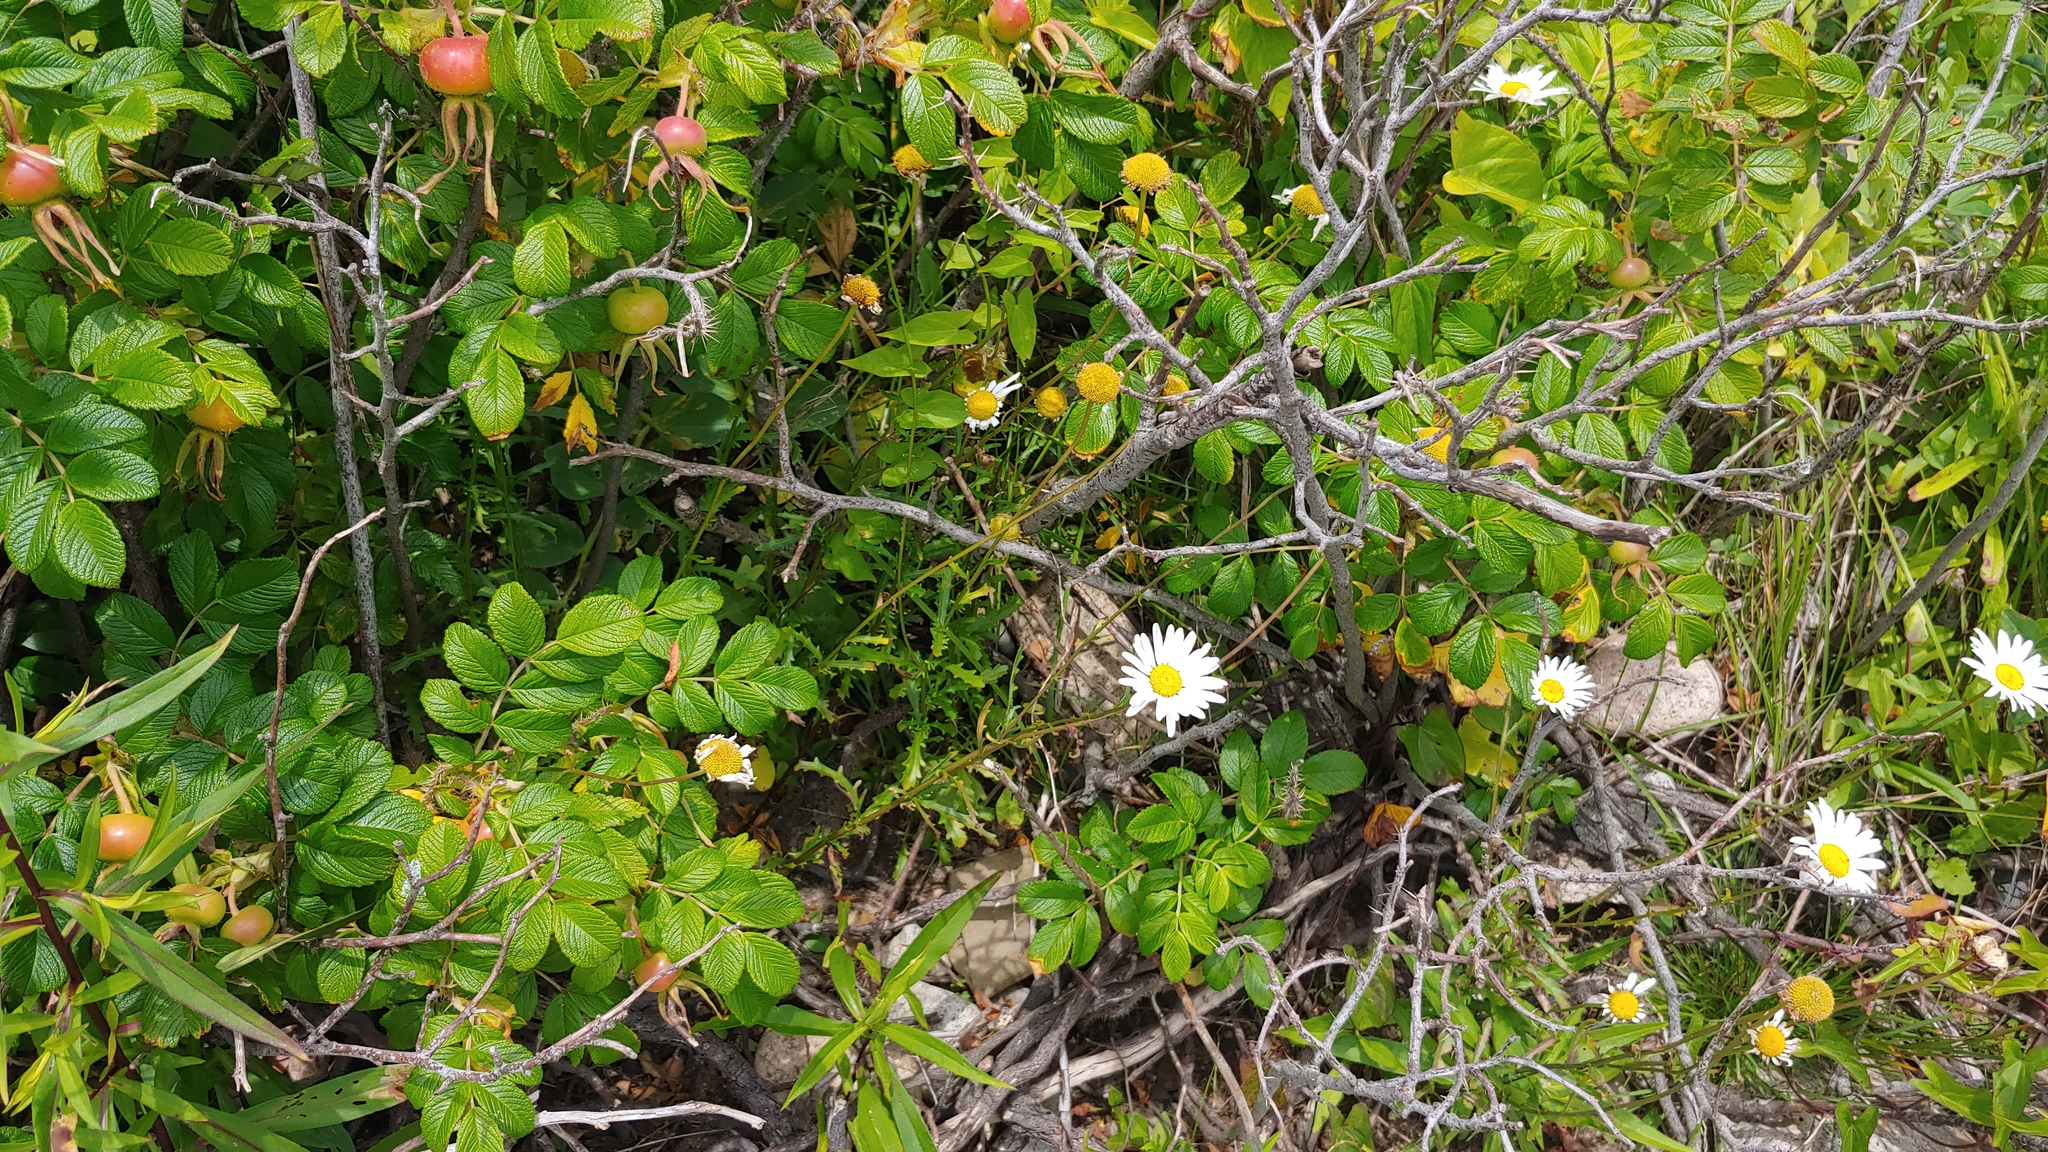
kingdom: Plantae
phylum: Tracheophyta
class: Magnoliopsida
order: Asterales
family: Asteraceae
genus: Leucanthemum
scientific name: Leucanthemum vulgare
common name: Oxeye daisy
